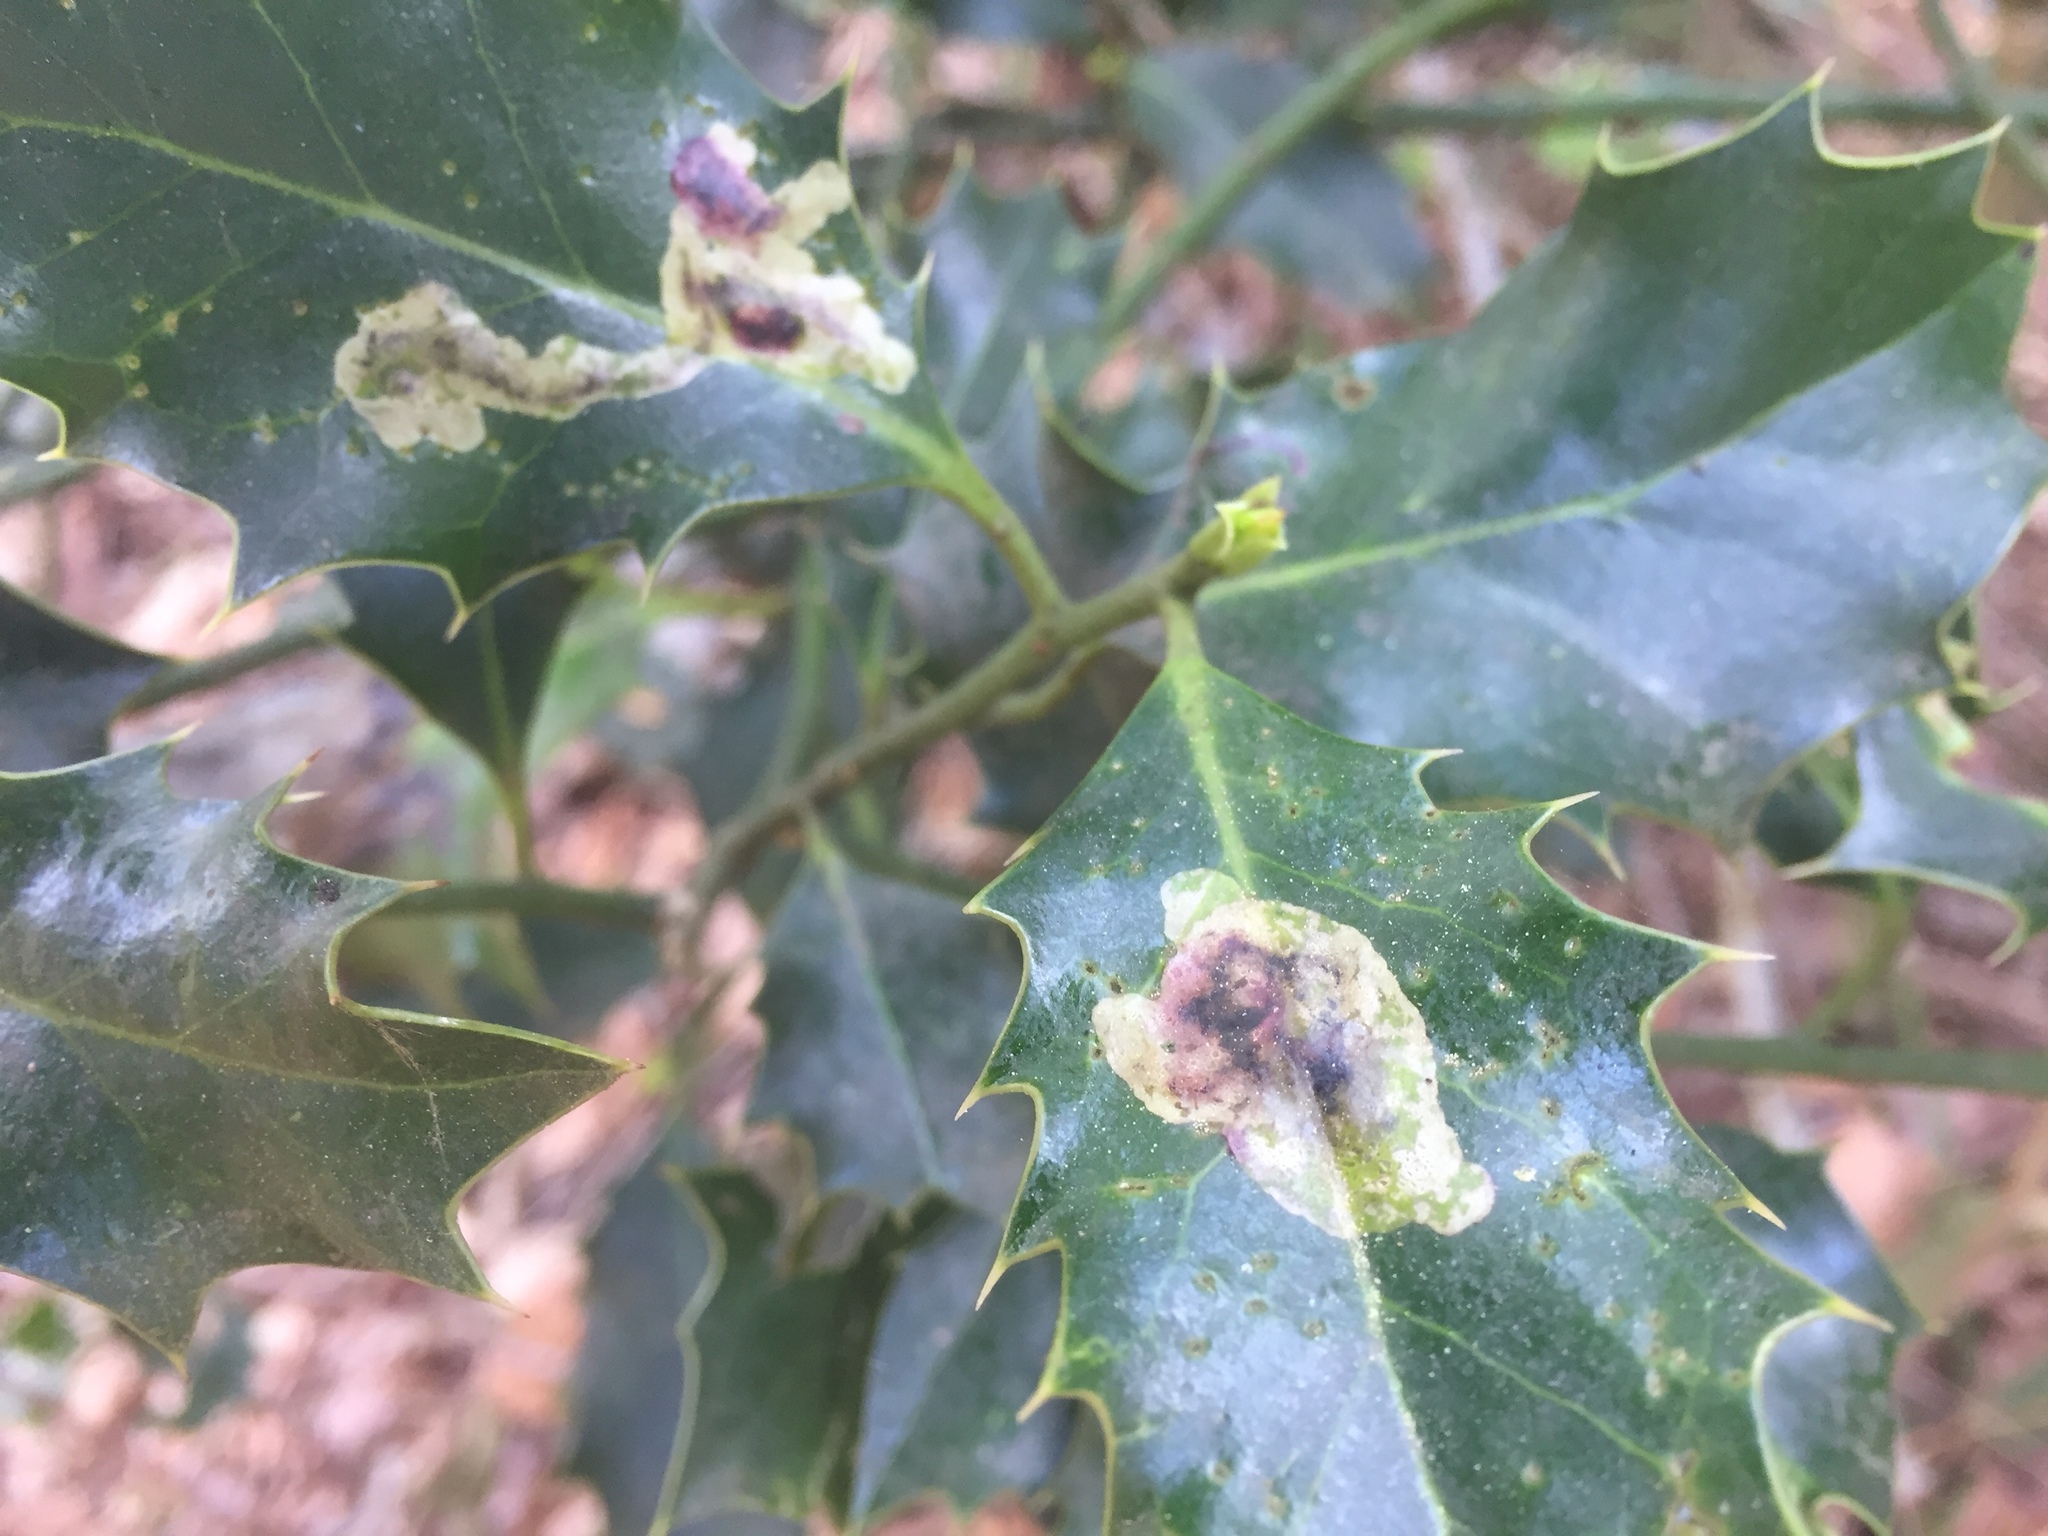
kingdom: Plantae
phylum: Tracheophyta
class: Magnoliopsida
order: Aquifoliales
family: Aquifoliaceae
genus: Ilex
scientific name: Ilex aquifolium
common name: English holly
